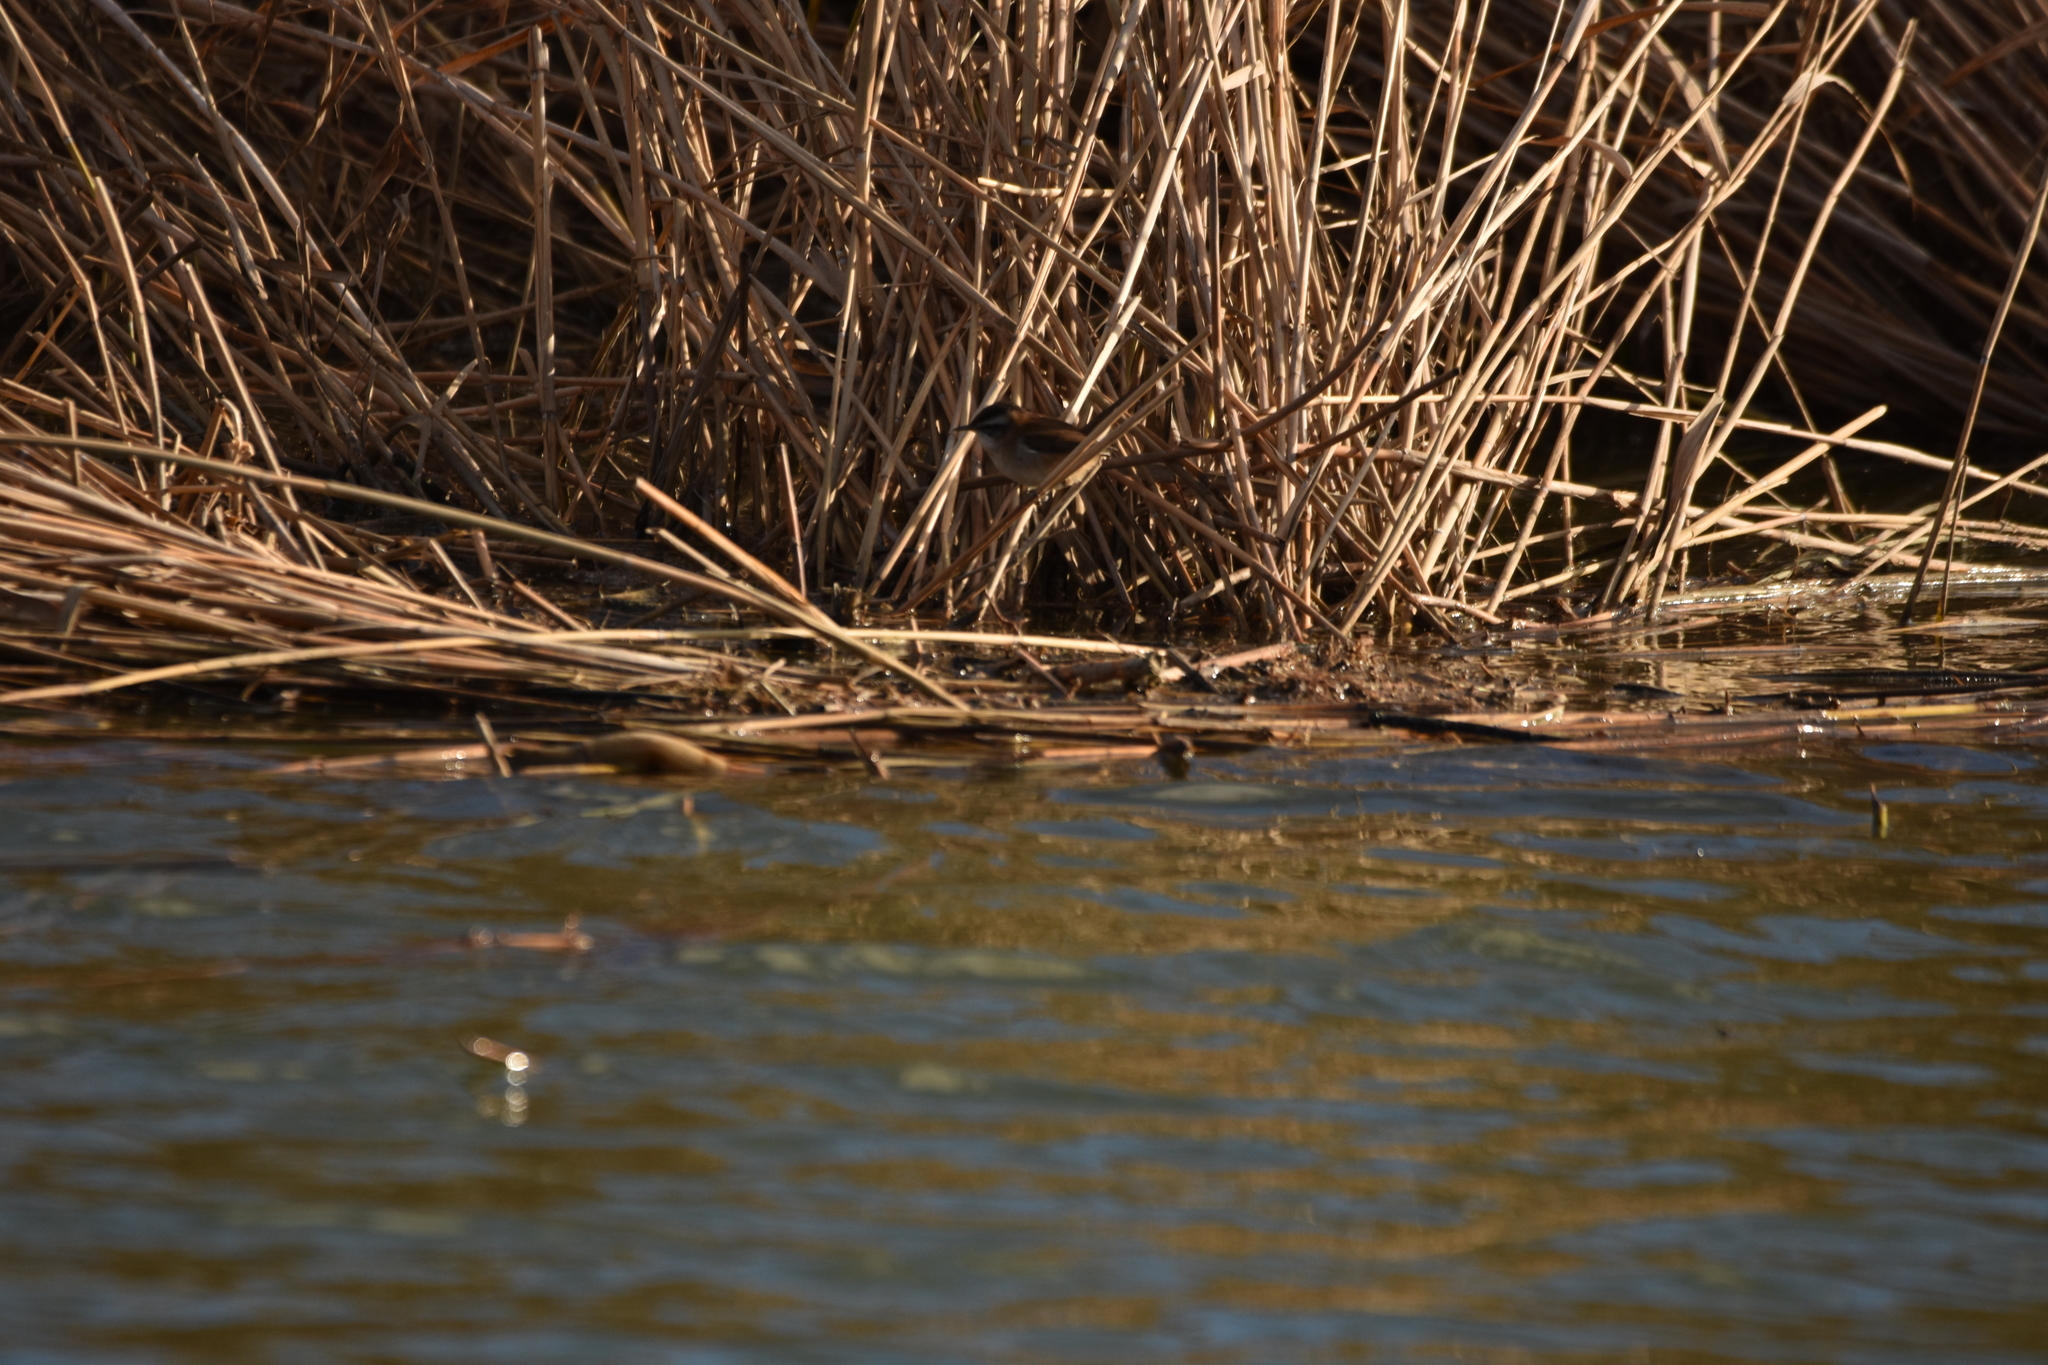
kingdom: Animalia
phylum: Chordata
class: Aves
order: Passeriformes
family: Acrocephalidae
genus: Acrocephalus
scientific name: Acrocephalus melanopogon
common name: Moustached warbler
